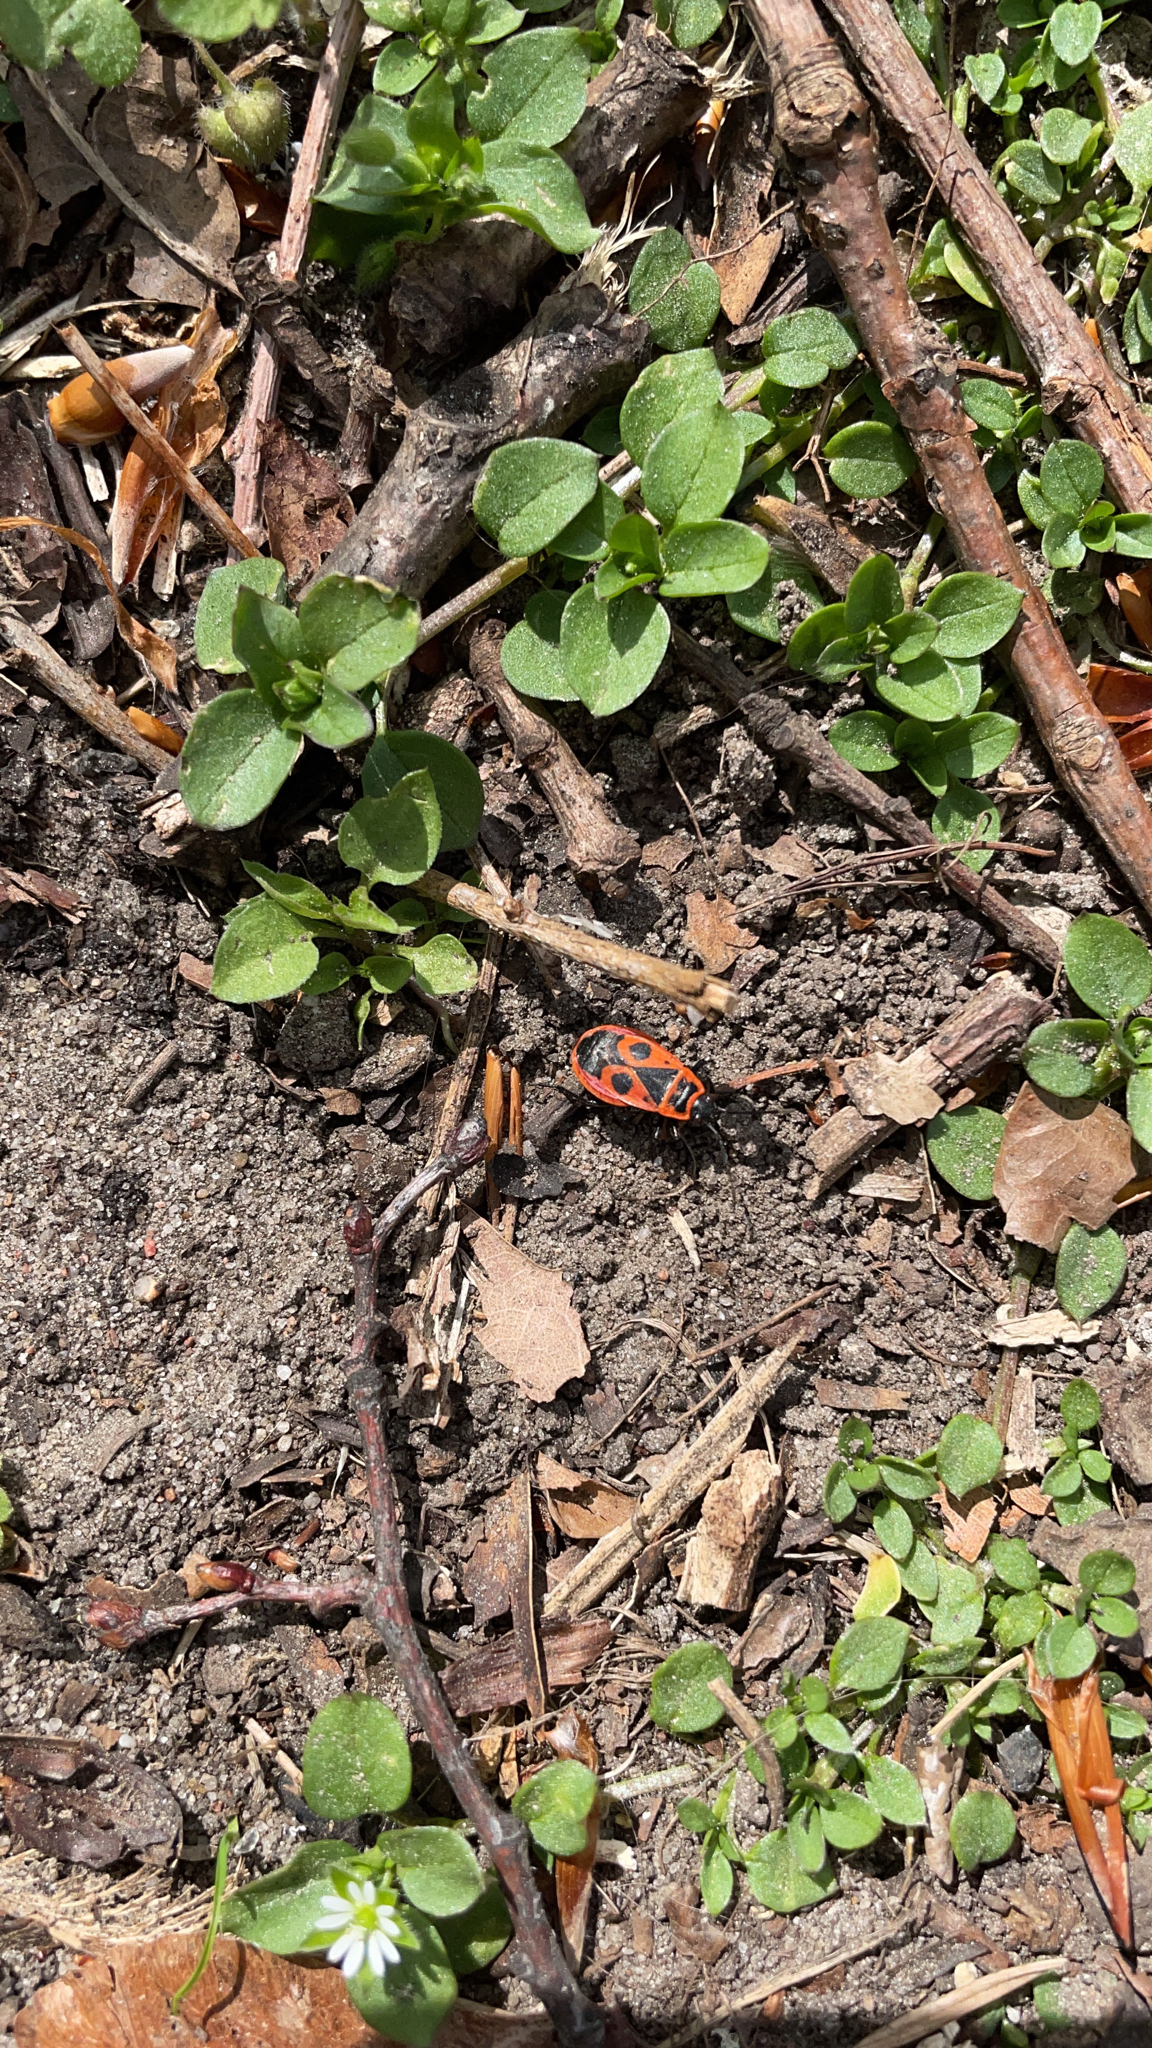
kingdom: Animalia
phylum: Arthropoda
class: Insecta
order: Hemiptera
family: Pyrrhocoridae
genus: Pyrrhocoris
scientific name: Pyrrhocoris apterus
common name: Firebug
